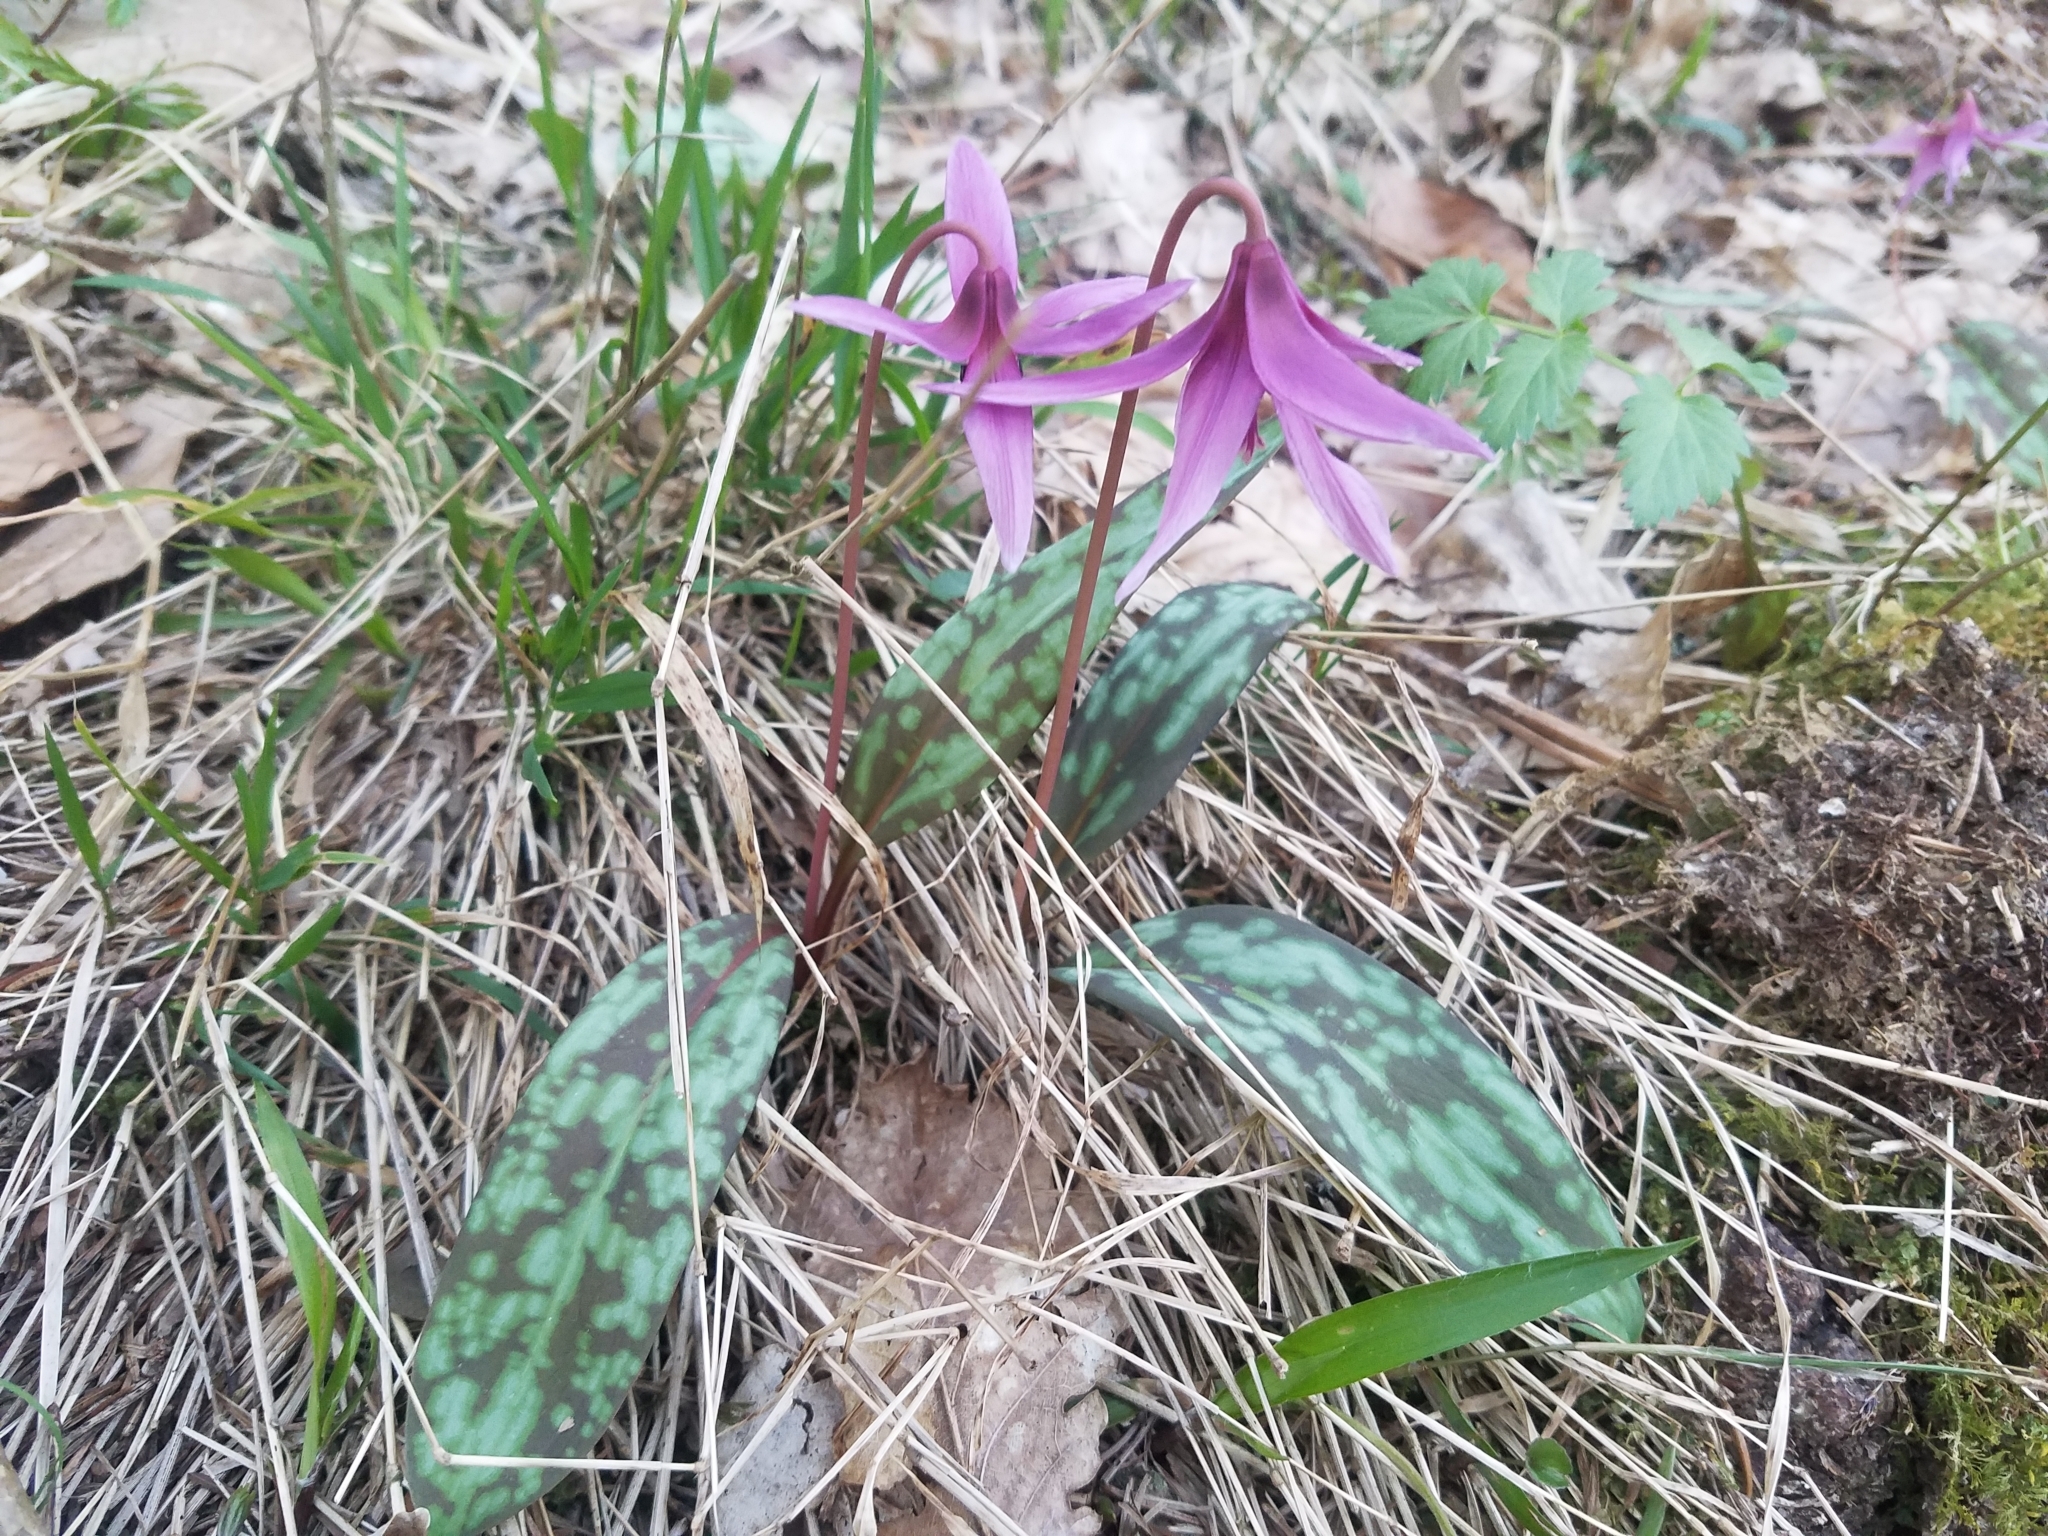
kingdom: Plantae
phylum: Tracheophyta
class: Liliopsida
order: Liliales
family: Liliaceae
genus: Erythronium
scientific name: Erythronium dens-canis
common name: Dog's-tooth-violet
